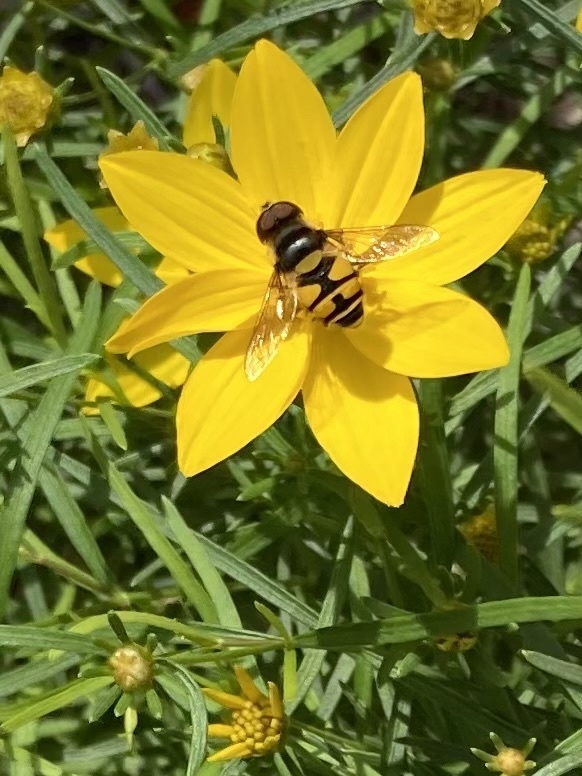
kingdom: Animalia
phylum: Arthropoda
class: Insecta
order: Diptera
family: Syrphidae
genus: Eristalis
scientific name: Eristalis transversa
